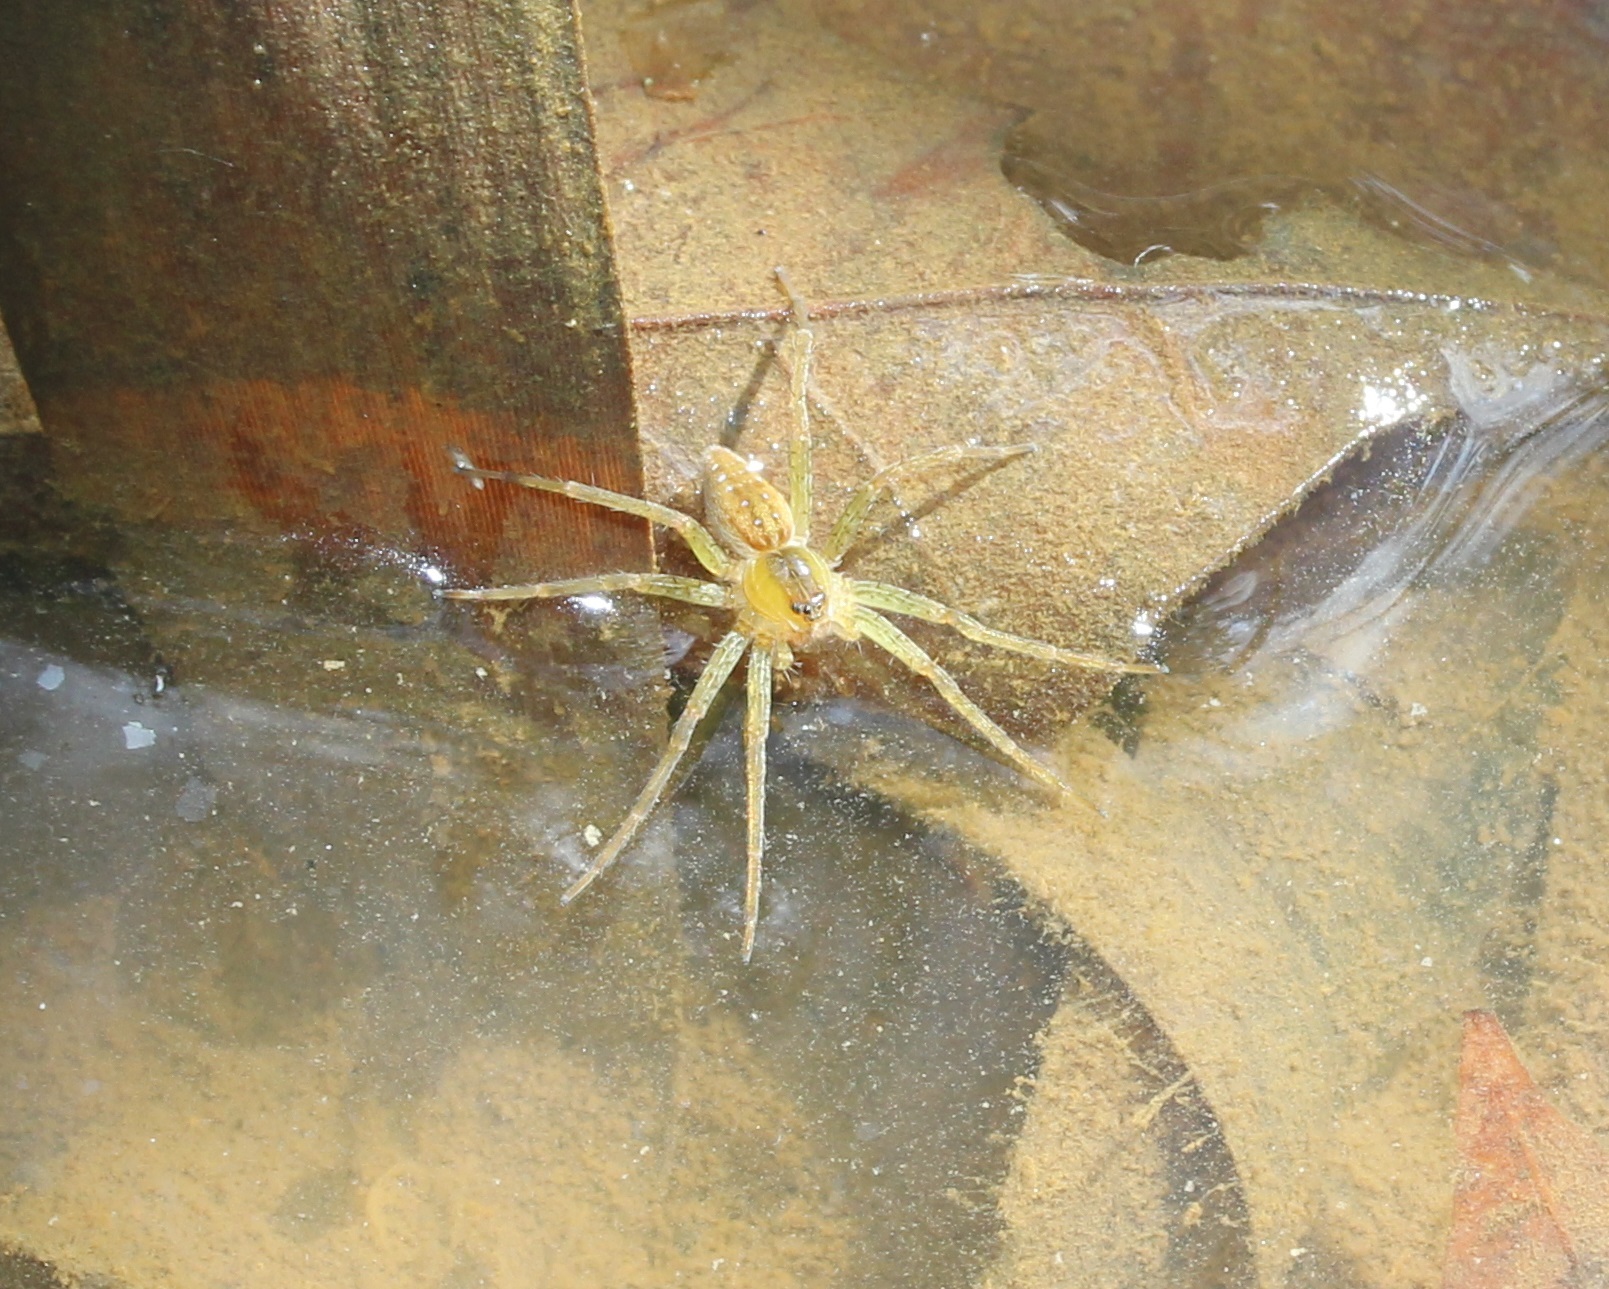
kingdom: Animalia
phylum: Arthropoda
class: Arachnida
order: Araneae
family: Pisauridae
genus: Dolomedes
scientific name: Dolomedes triton
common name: Six-spotted fishing spider
